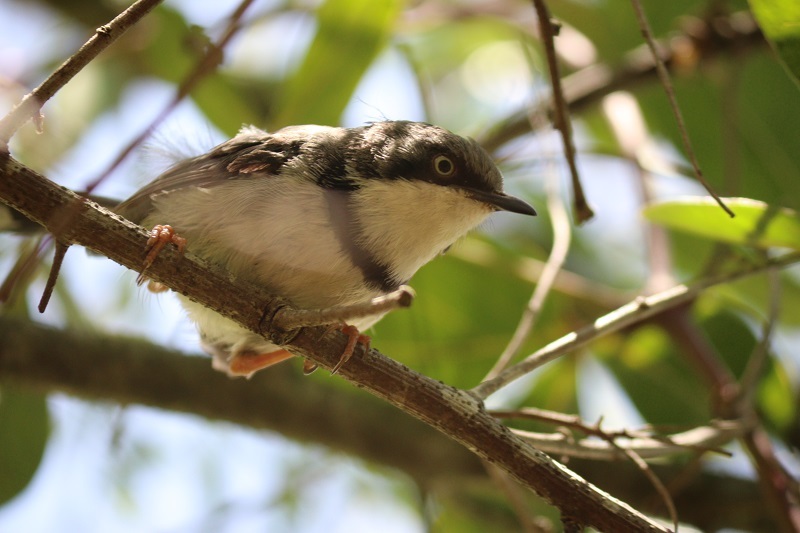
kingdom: Animalia
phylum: Chordata
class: Aves
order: Passeriformes
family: Cisticolidae
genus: Apalis
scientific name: Apalis thoracica
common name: Bar-throated apalis
